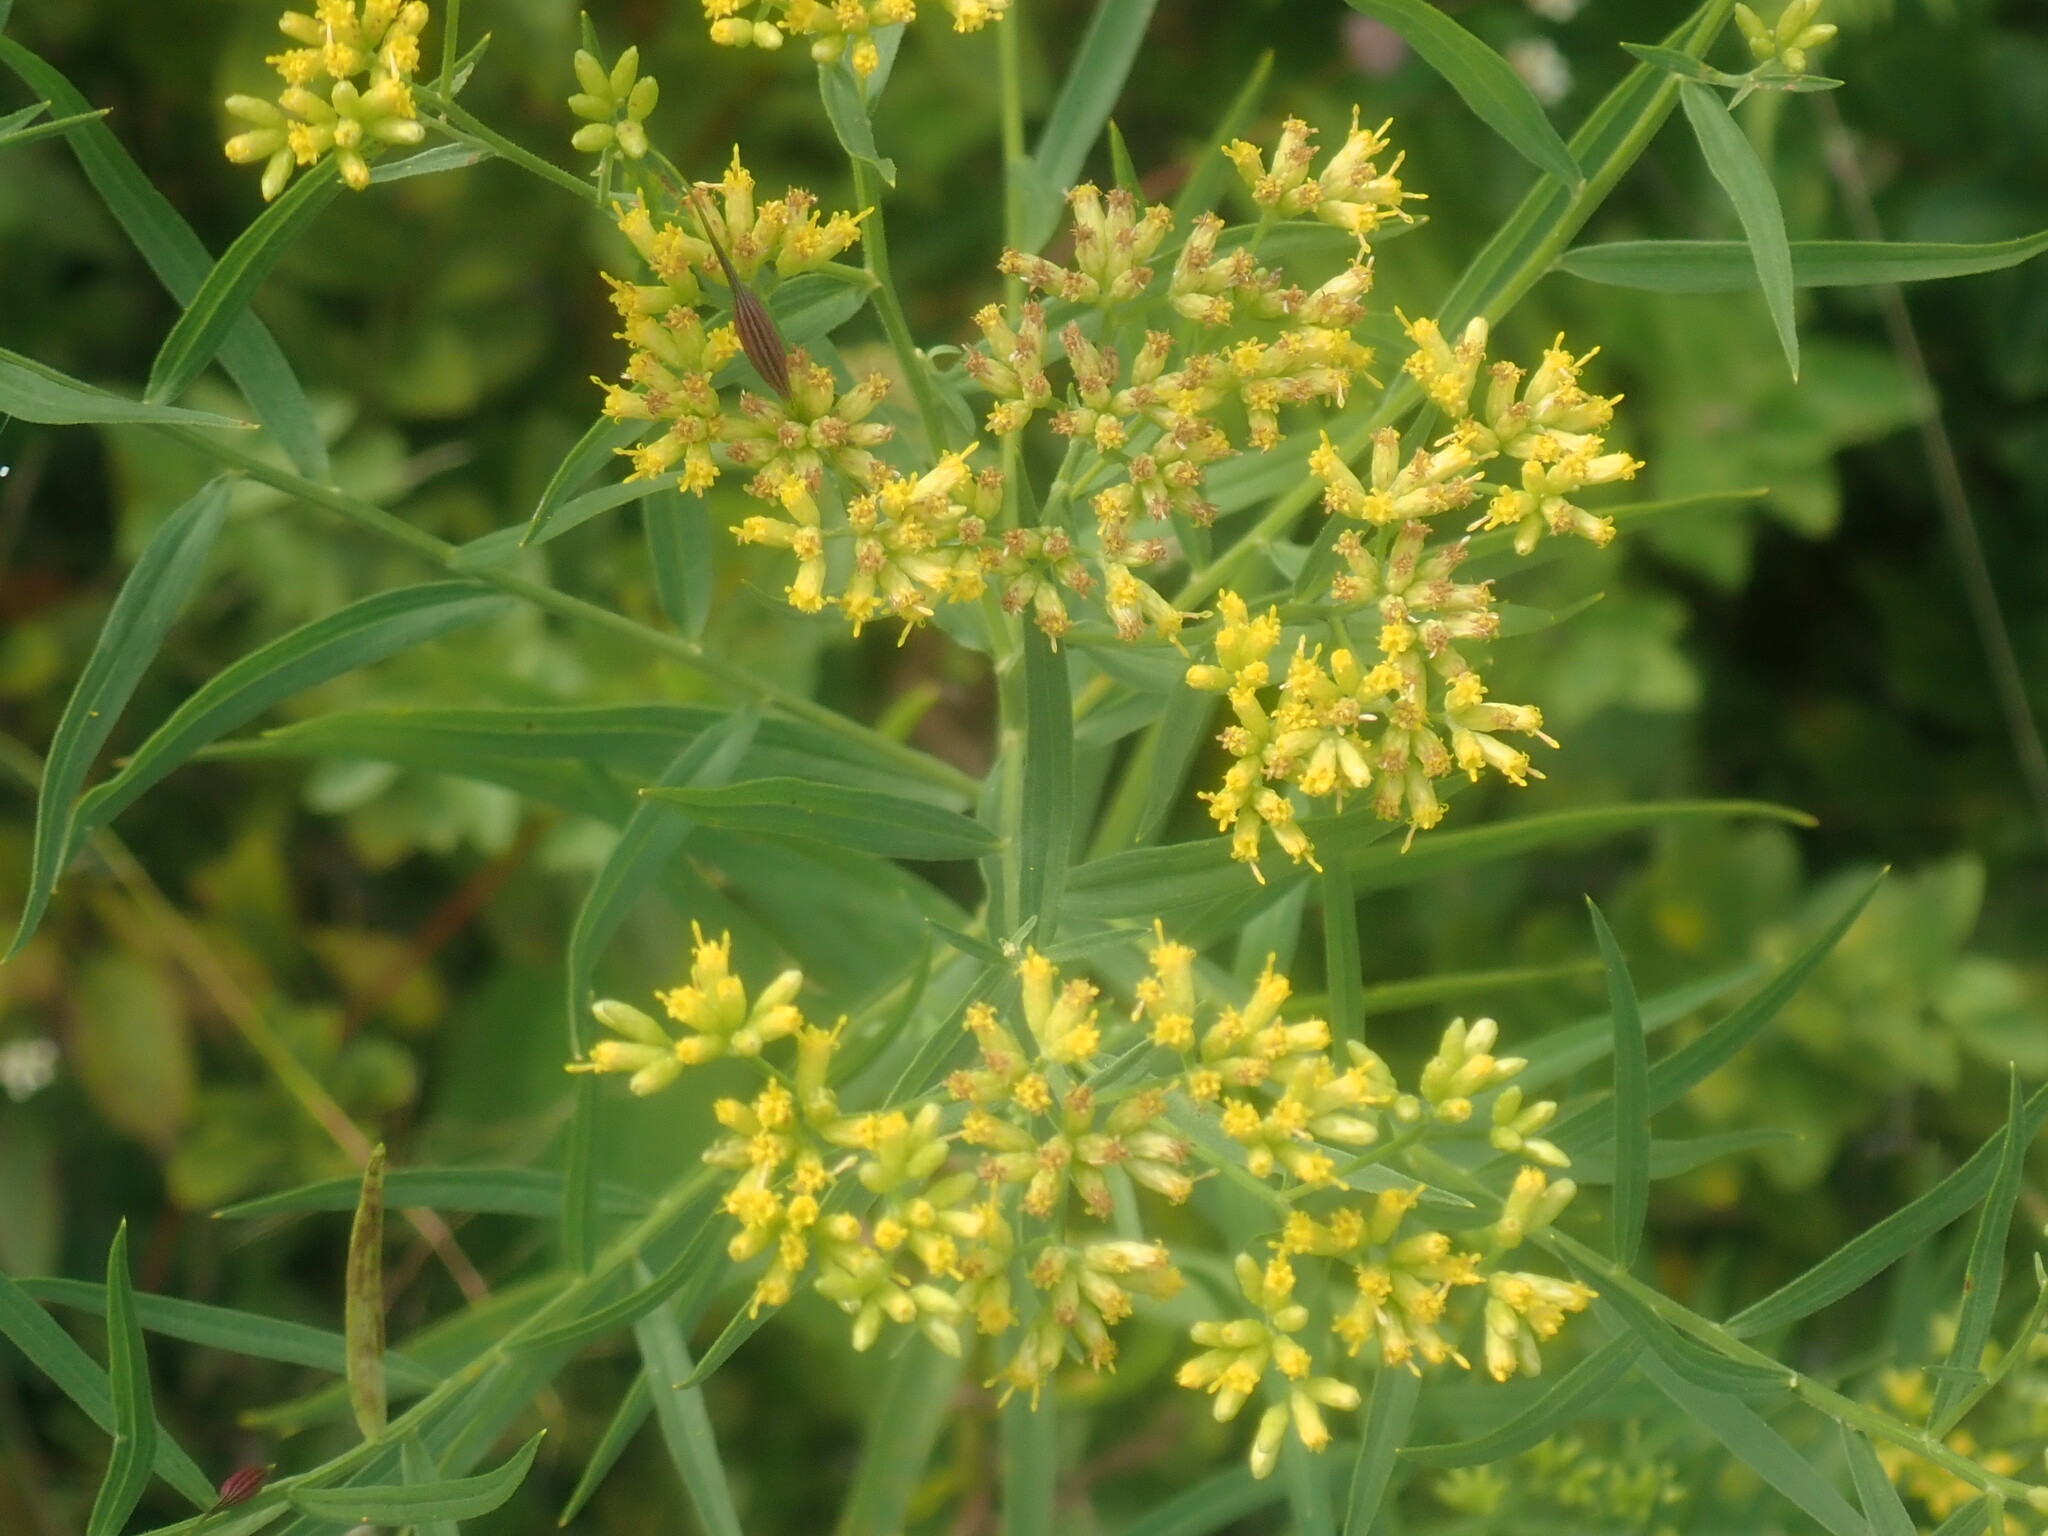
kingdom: Plantae
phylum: Tracheophyta
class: Magnoliopsida
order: Asterales
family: Asteraceae
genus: Euthamia
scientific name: Euthamia graminifolia
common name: Common goldentop
